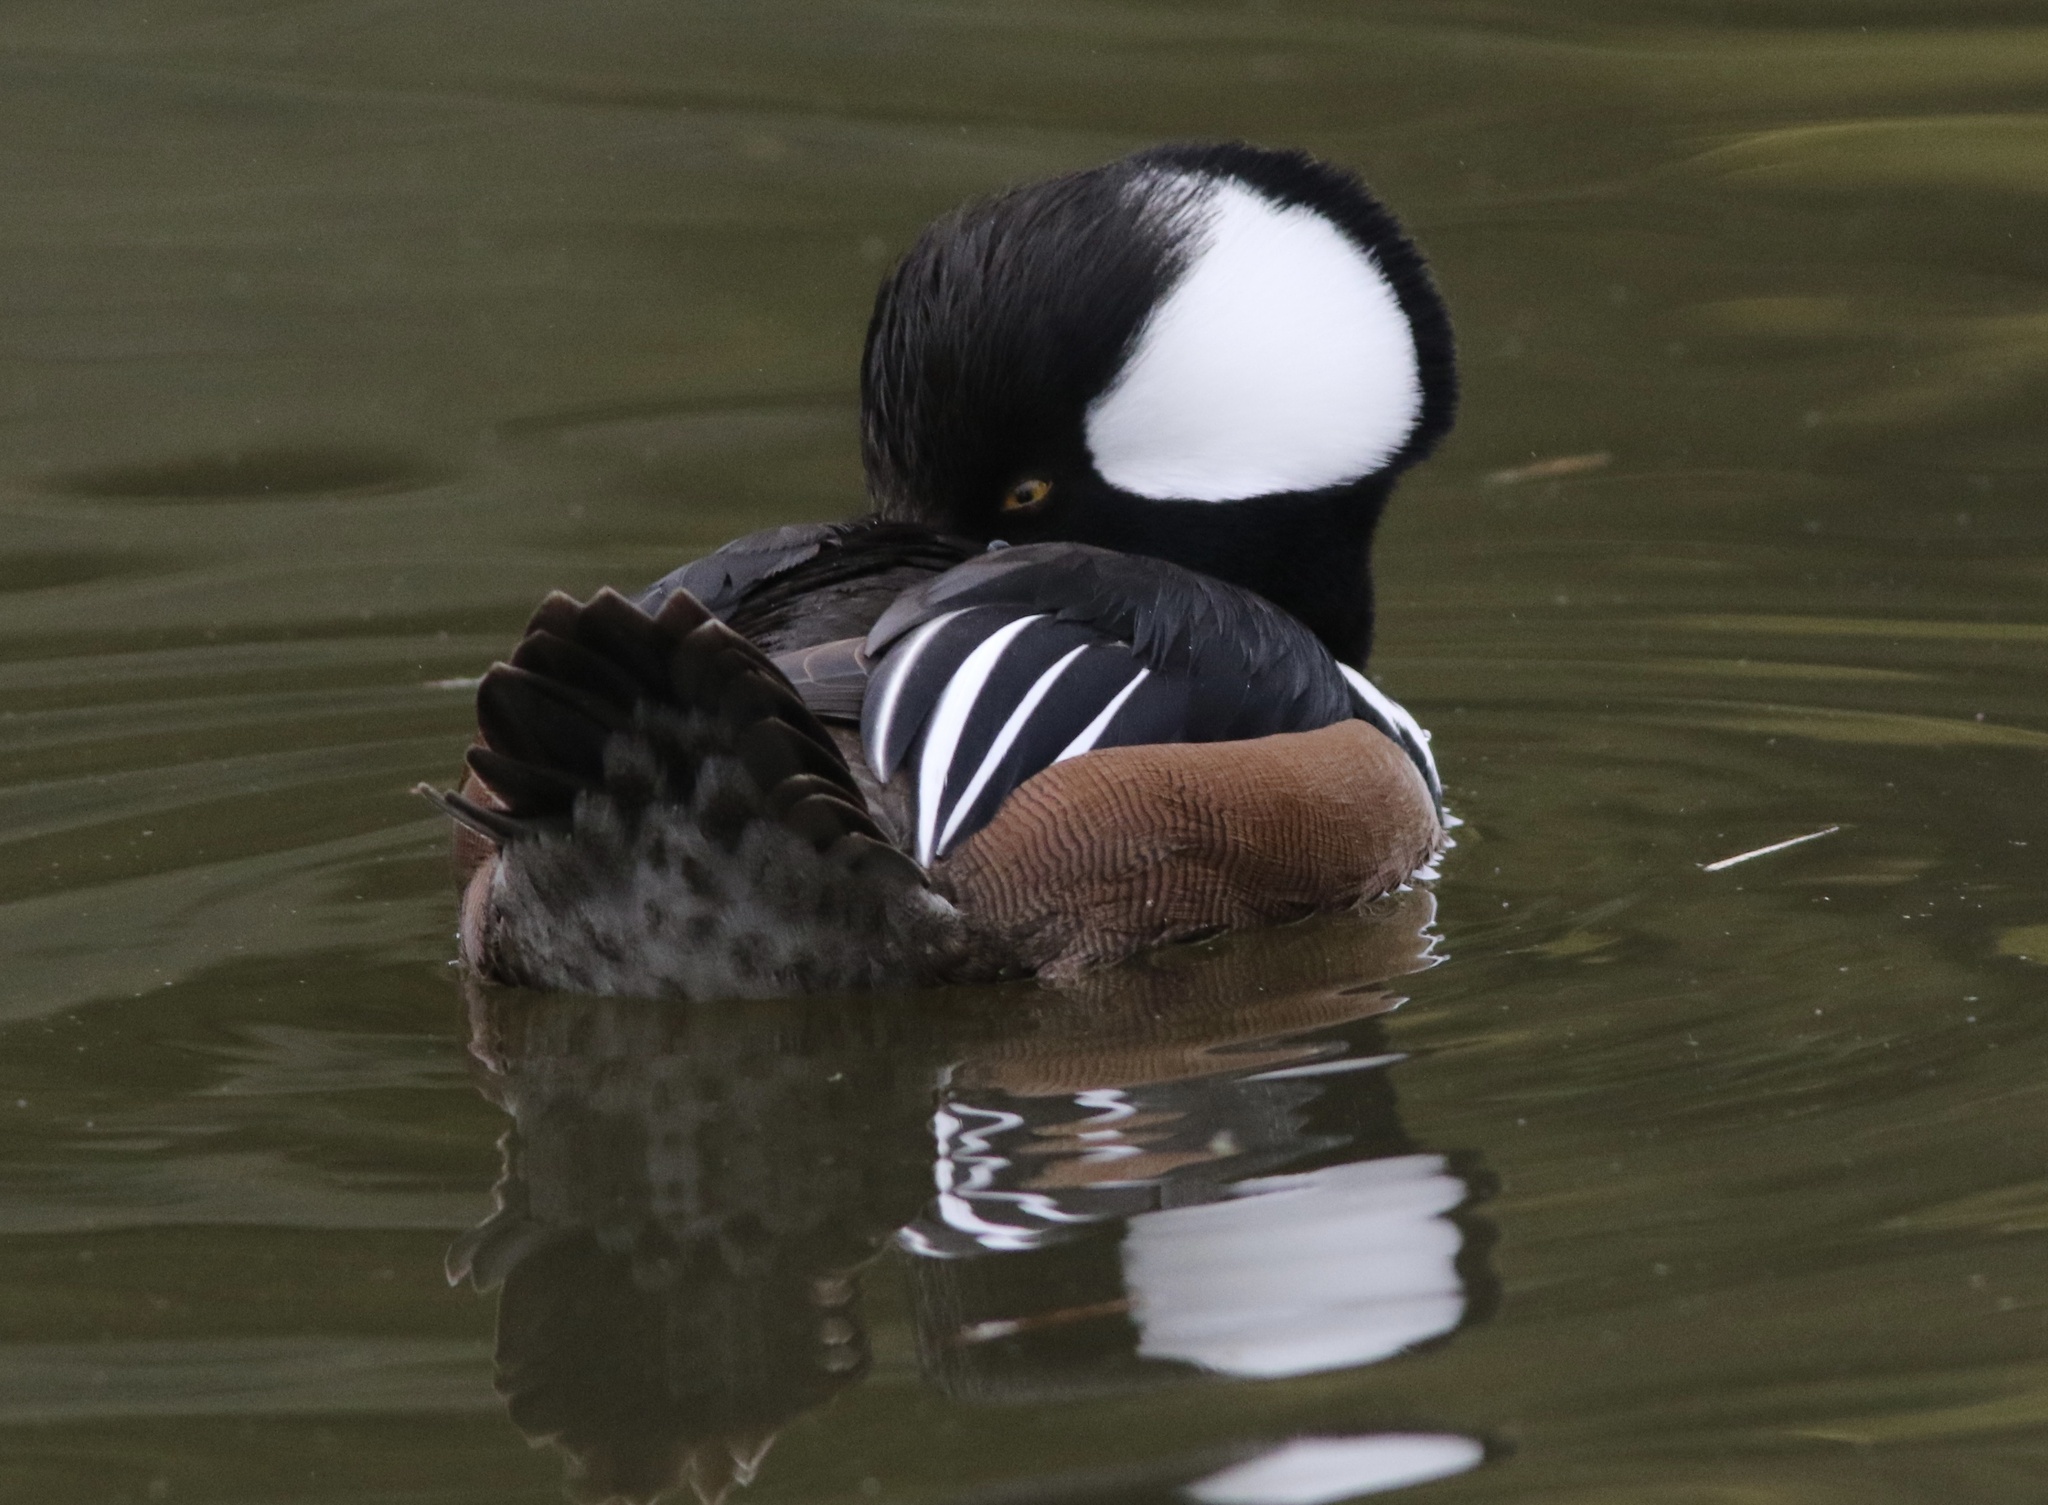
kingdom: Animalia
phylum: Chordata
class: Aves
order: Anseriformes
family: Anatidae
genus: Lophodytes
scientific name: Lophodytes cucullatus
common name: Hooded merganser
